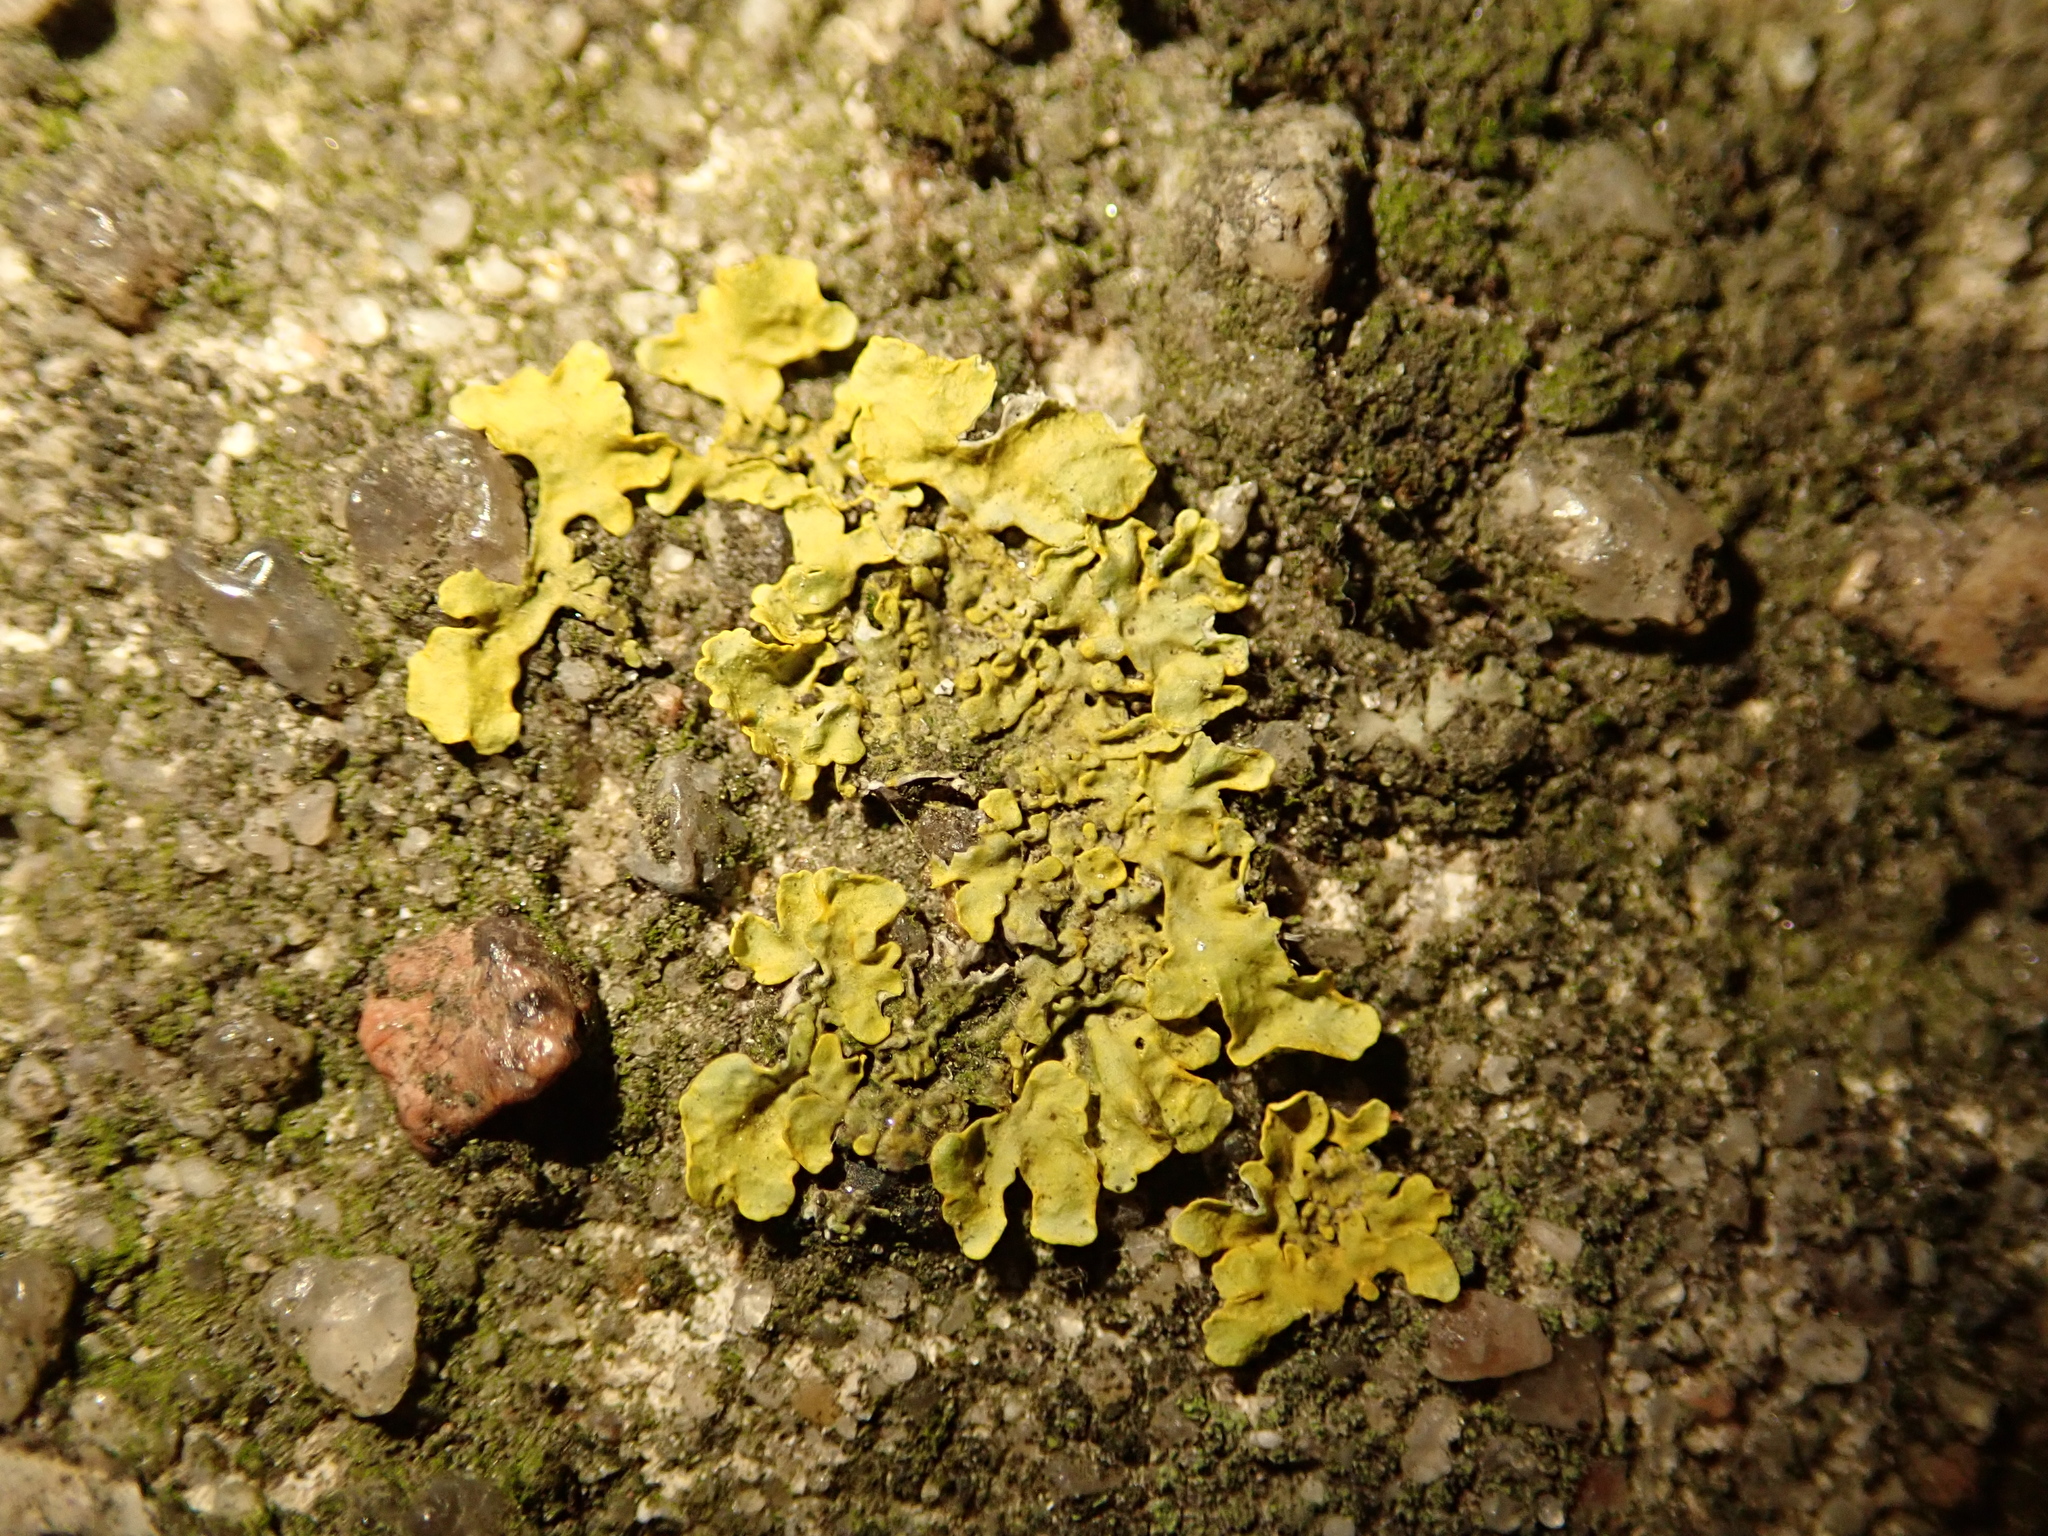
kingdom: Fungi
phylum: Ascomycota
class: Lecanoromycetes
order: Teloschistales
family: Teloschistaceae
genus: Xanthoria
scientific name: Xanthoria parietina
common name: Common orange lichen
